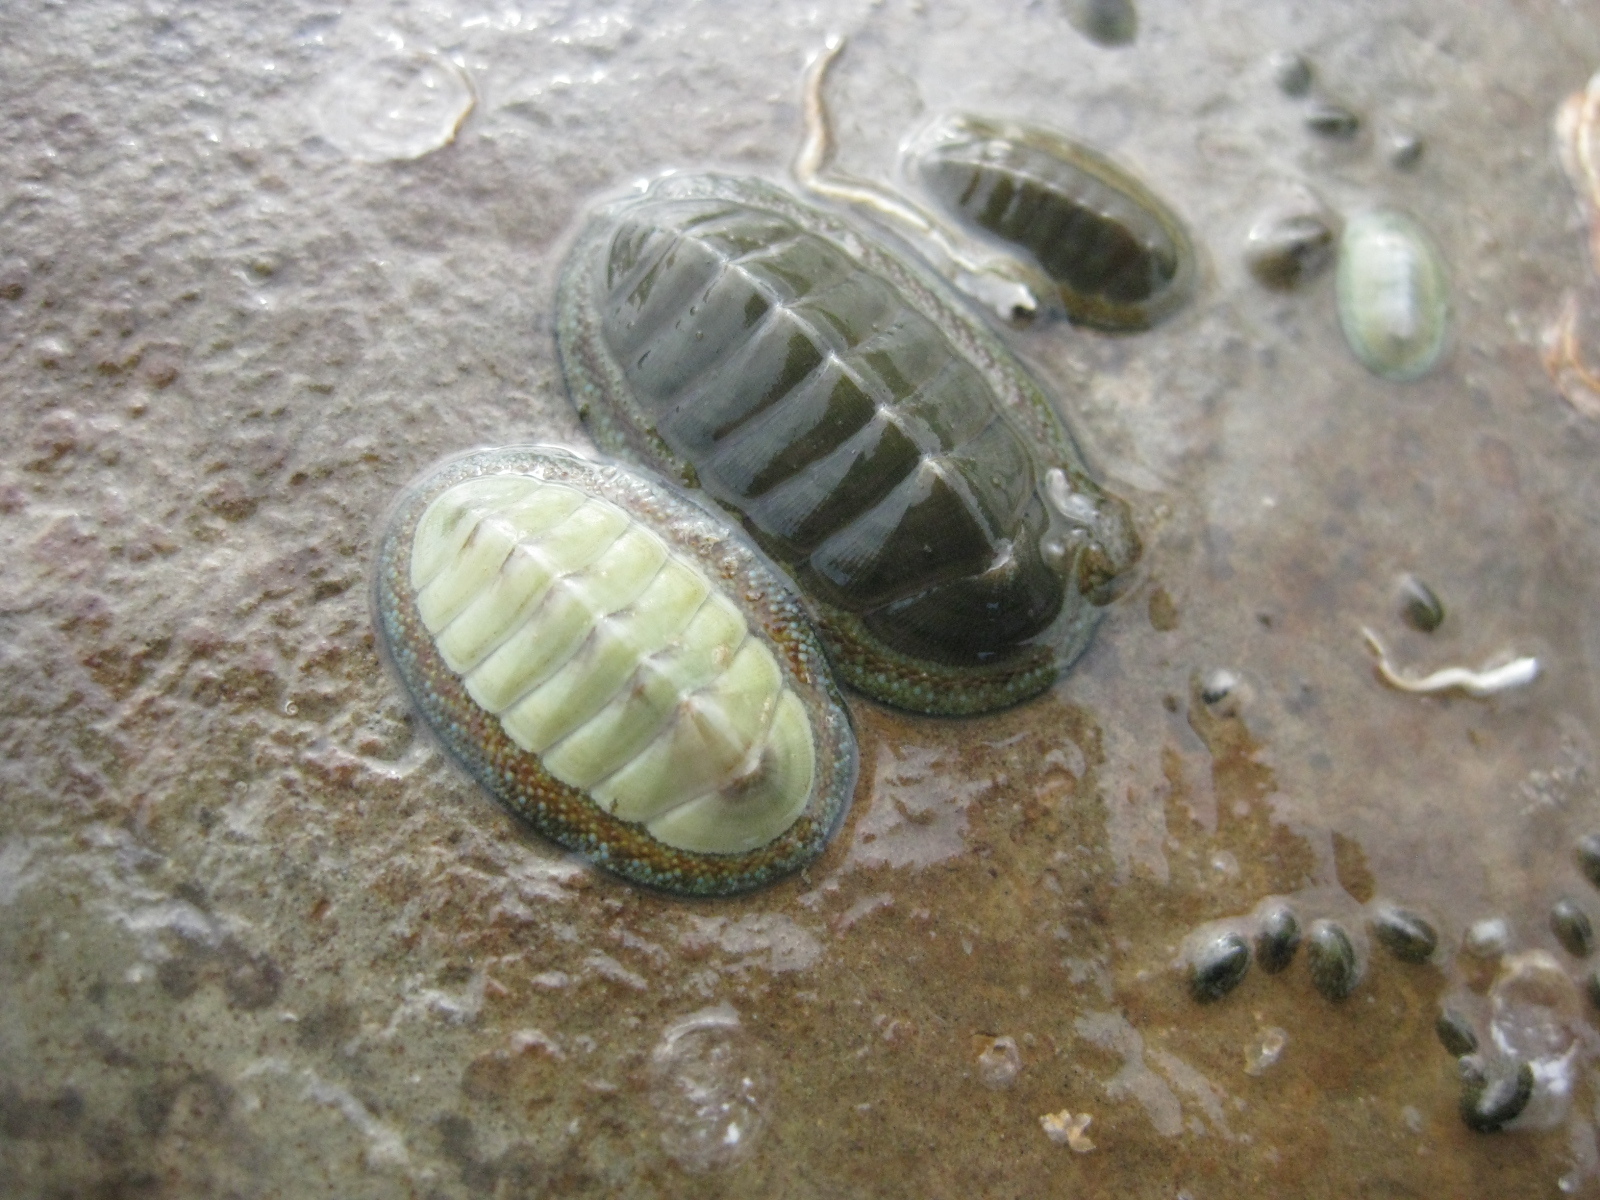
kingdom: Animalia
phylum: Mollusca
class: Polyplacophora
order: Chitonida
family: Chitonidae
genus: Chiton
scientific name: Chiton glaucus
